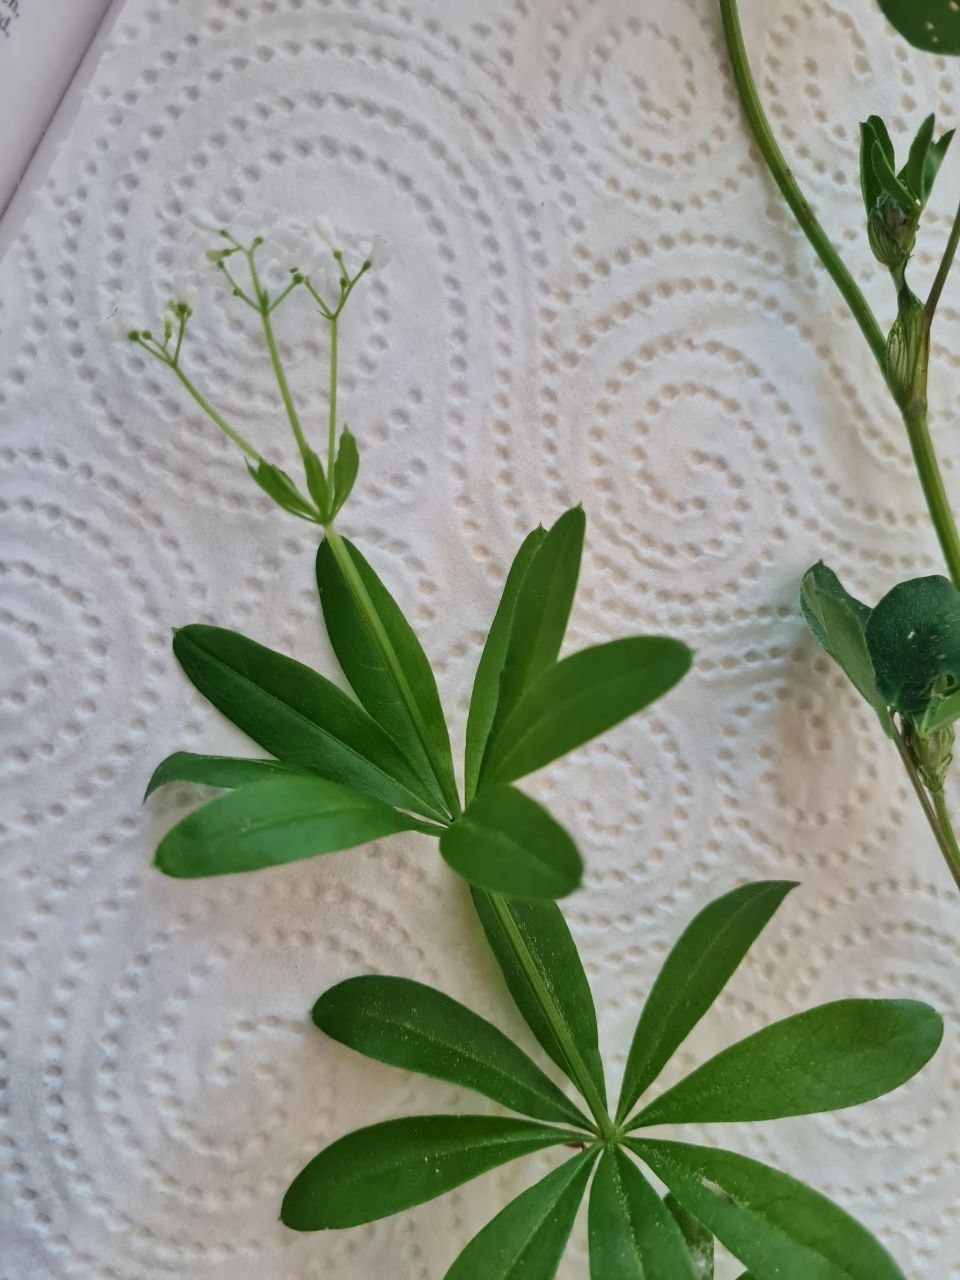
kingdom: Plantae
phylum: Tracheophyta
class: Magnoliopsida
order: Gentianales
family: Rubiaceae
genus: Galium
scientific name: Galium odoratum
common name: Sweet woodruff
